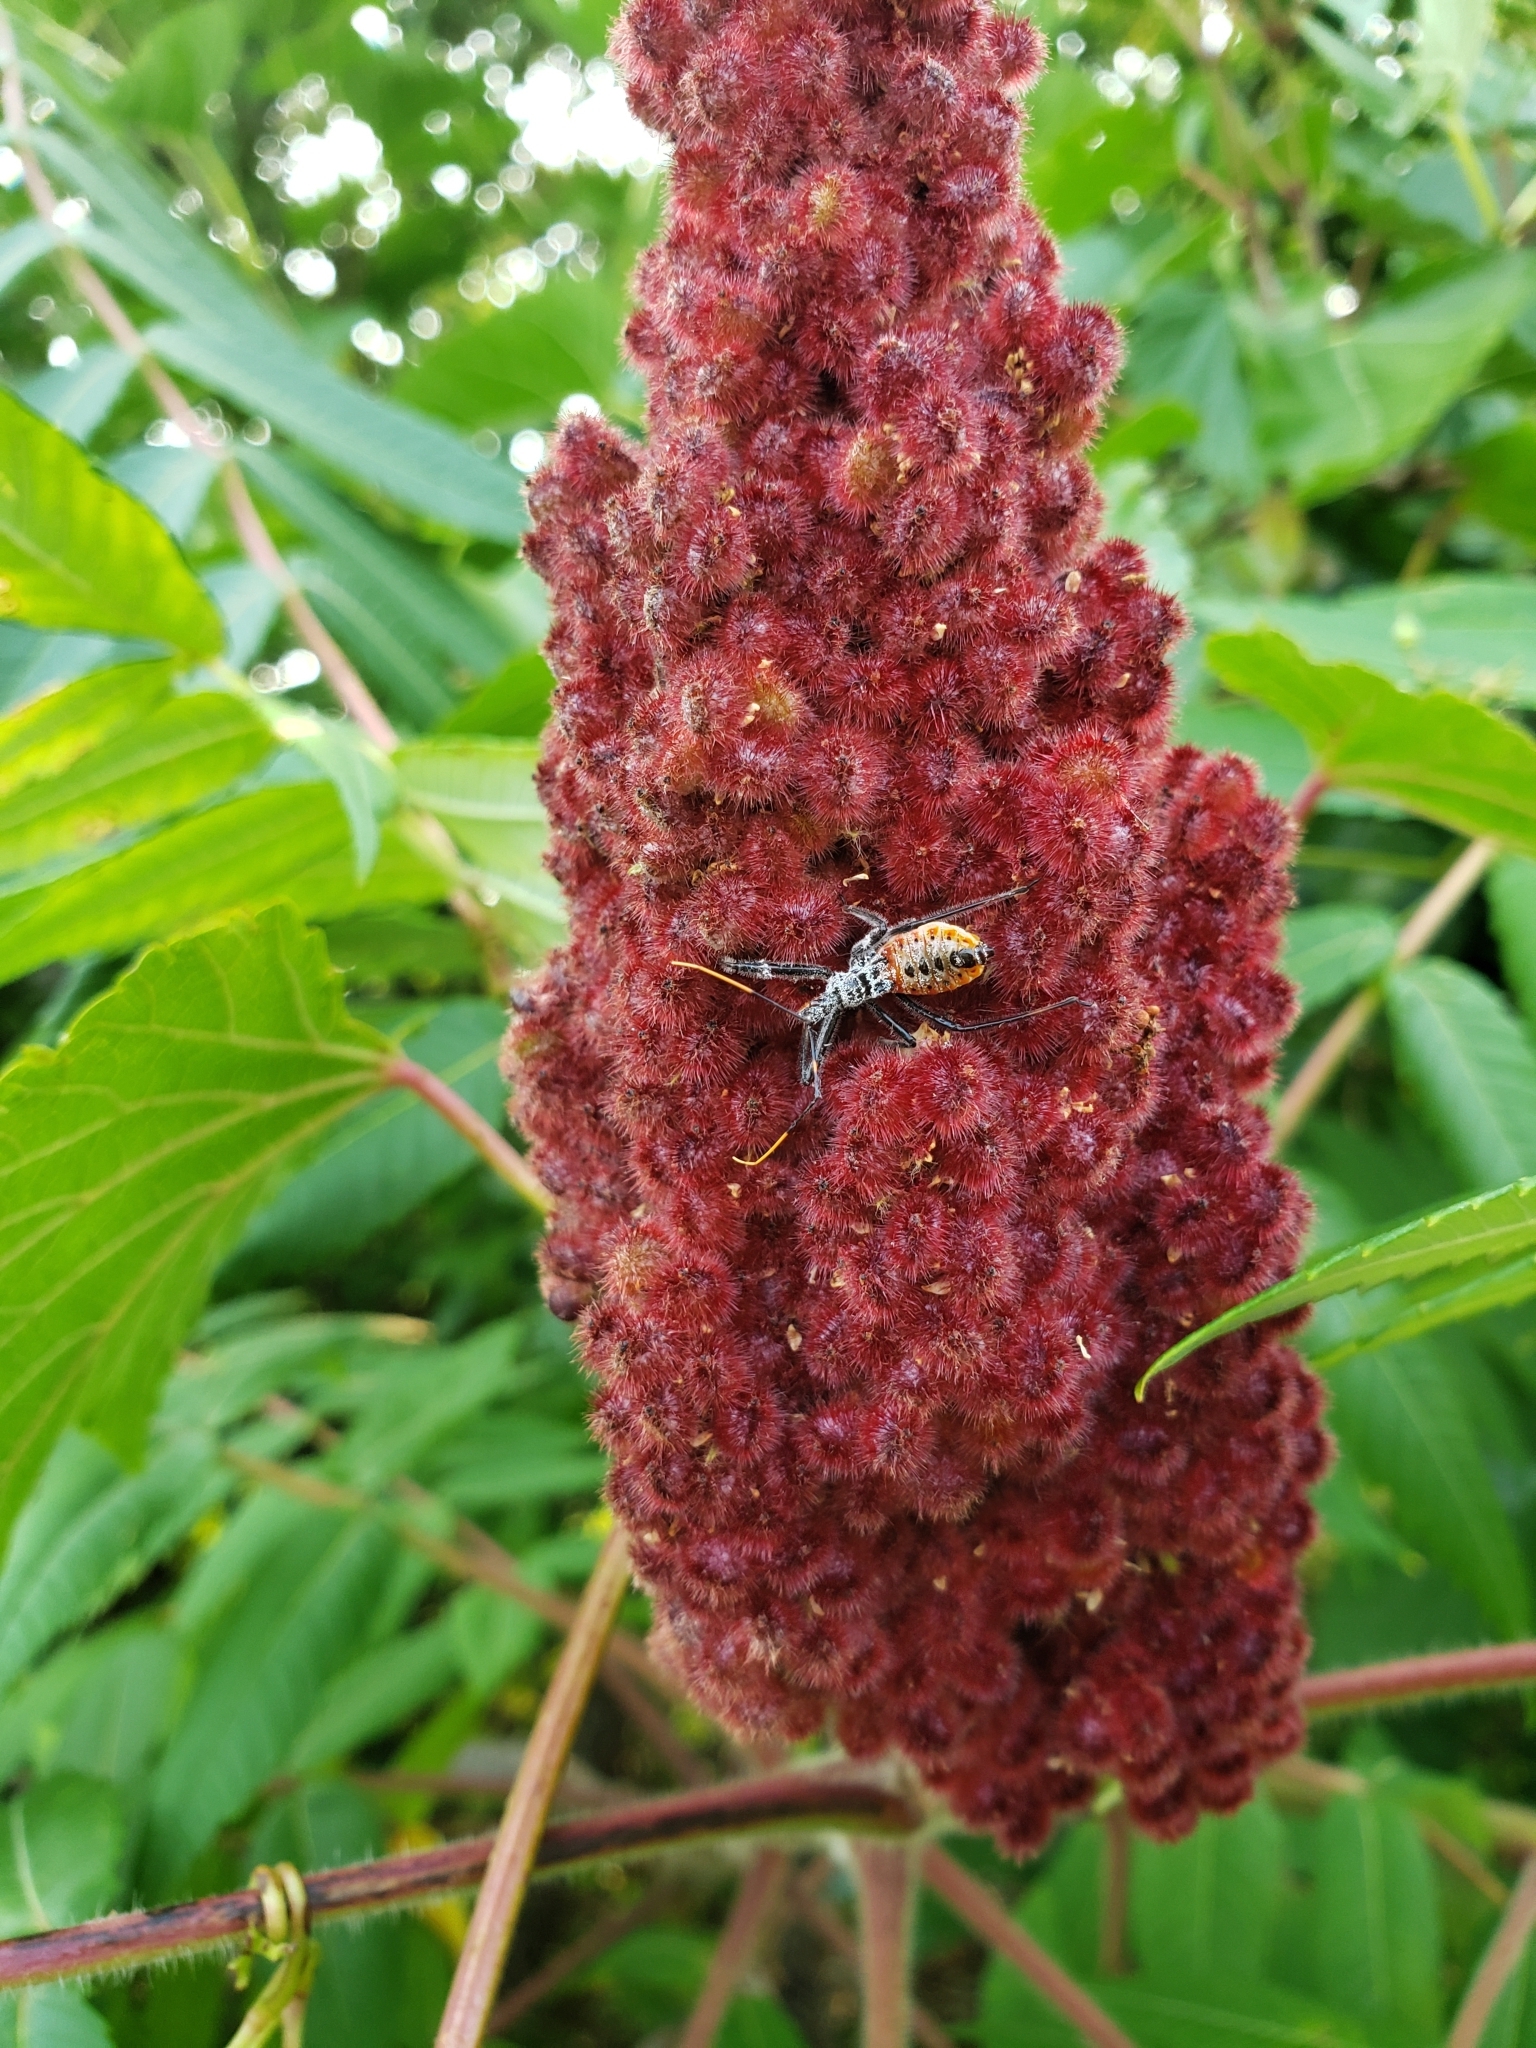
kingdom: Animalia
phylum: Arthropoda
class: Insecta
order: Hemiptera
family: Reduviidae
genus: Arilus
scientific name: Arilus cristatus
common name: North american wheel bug
